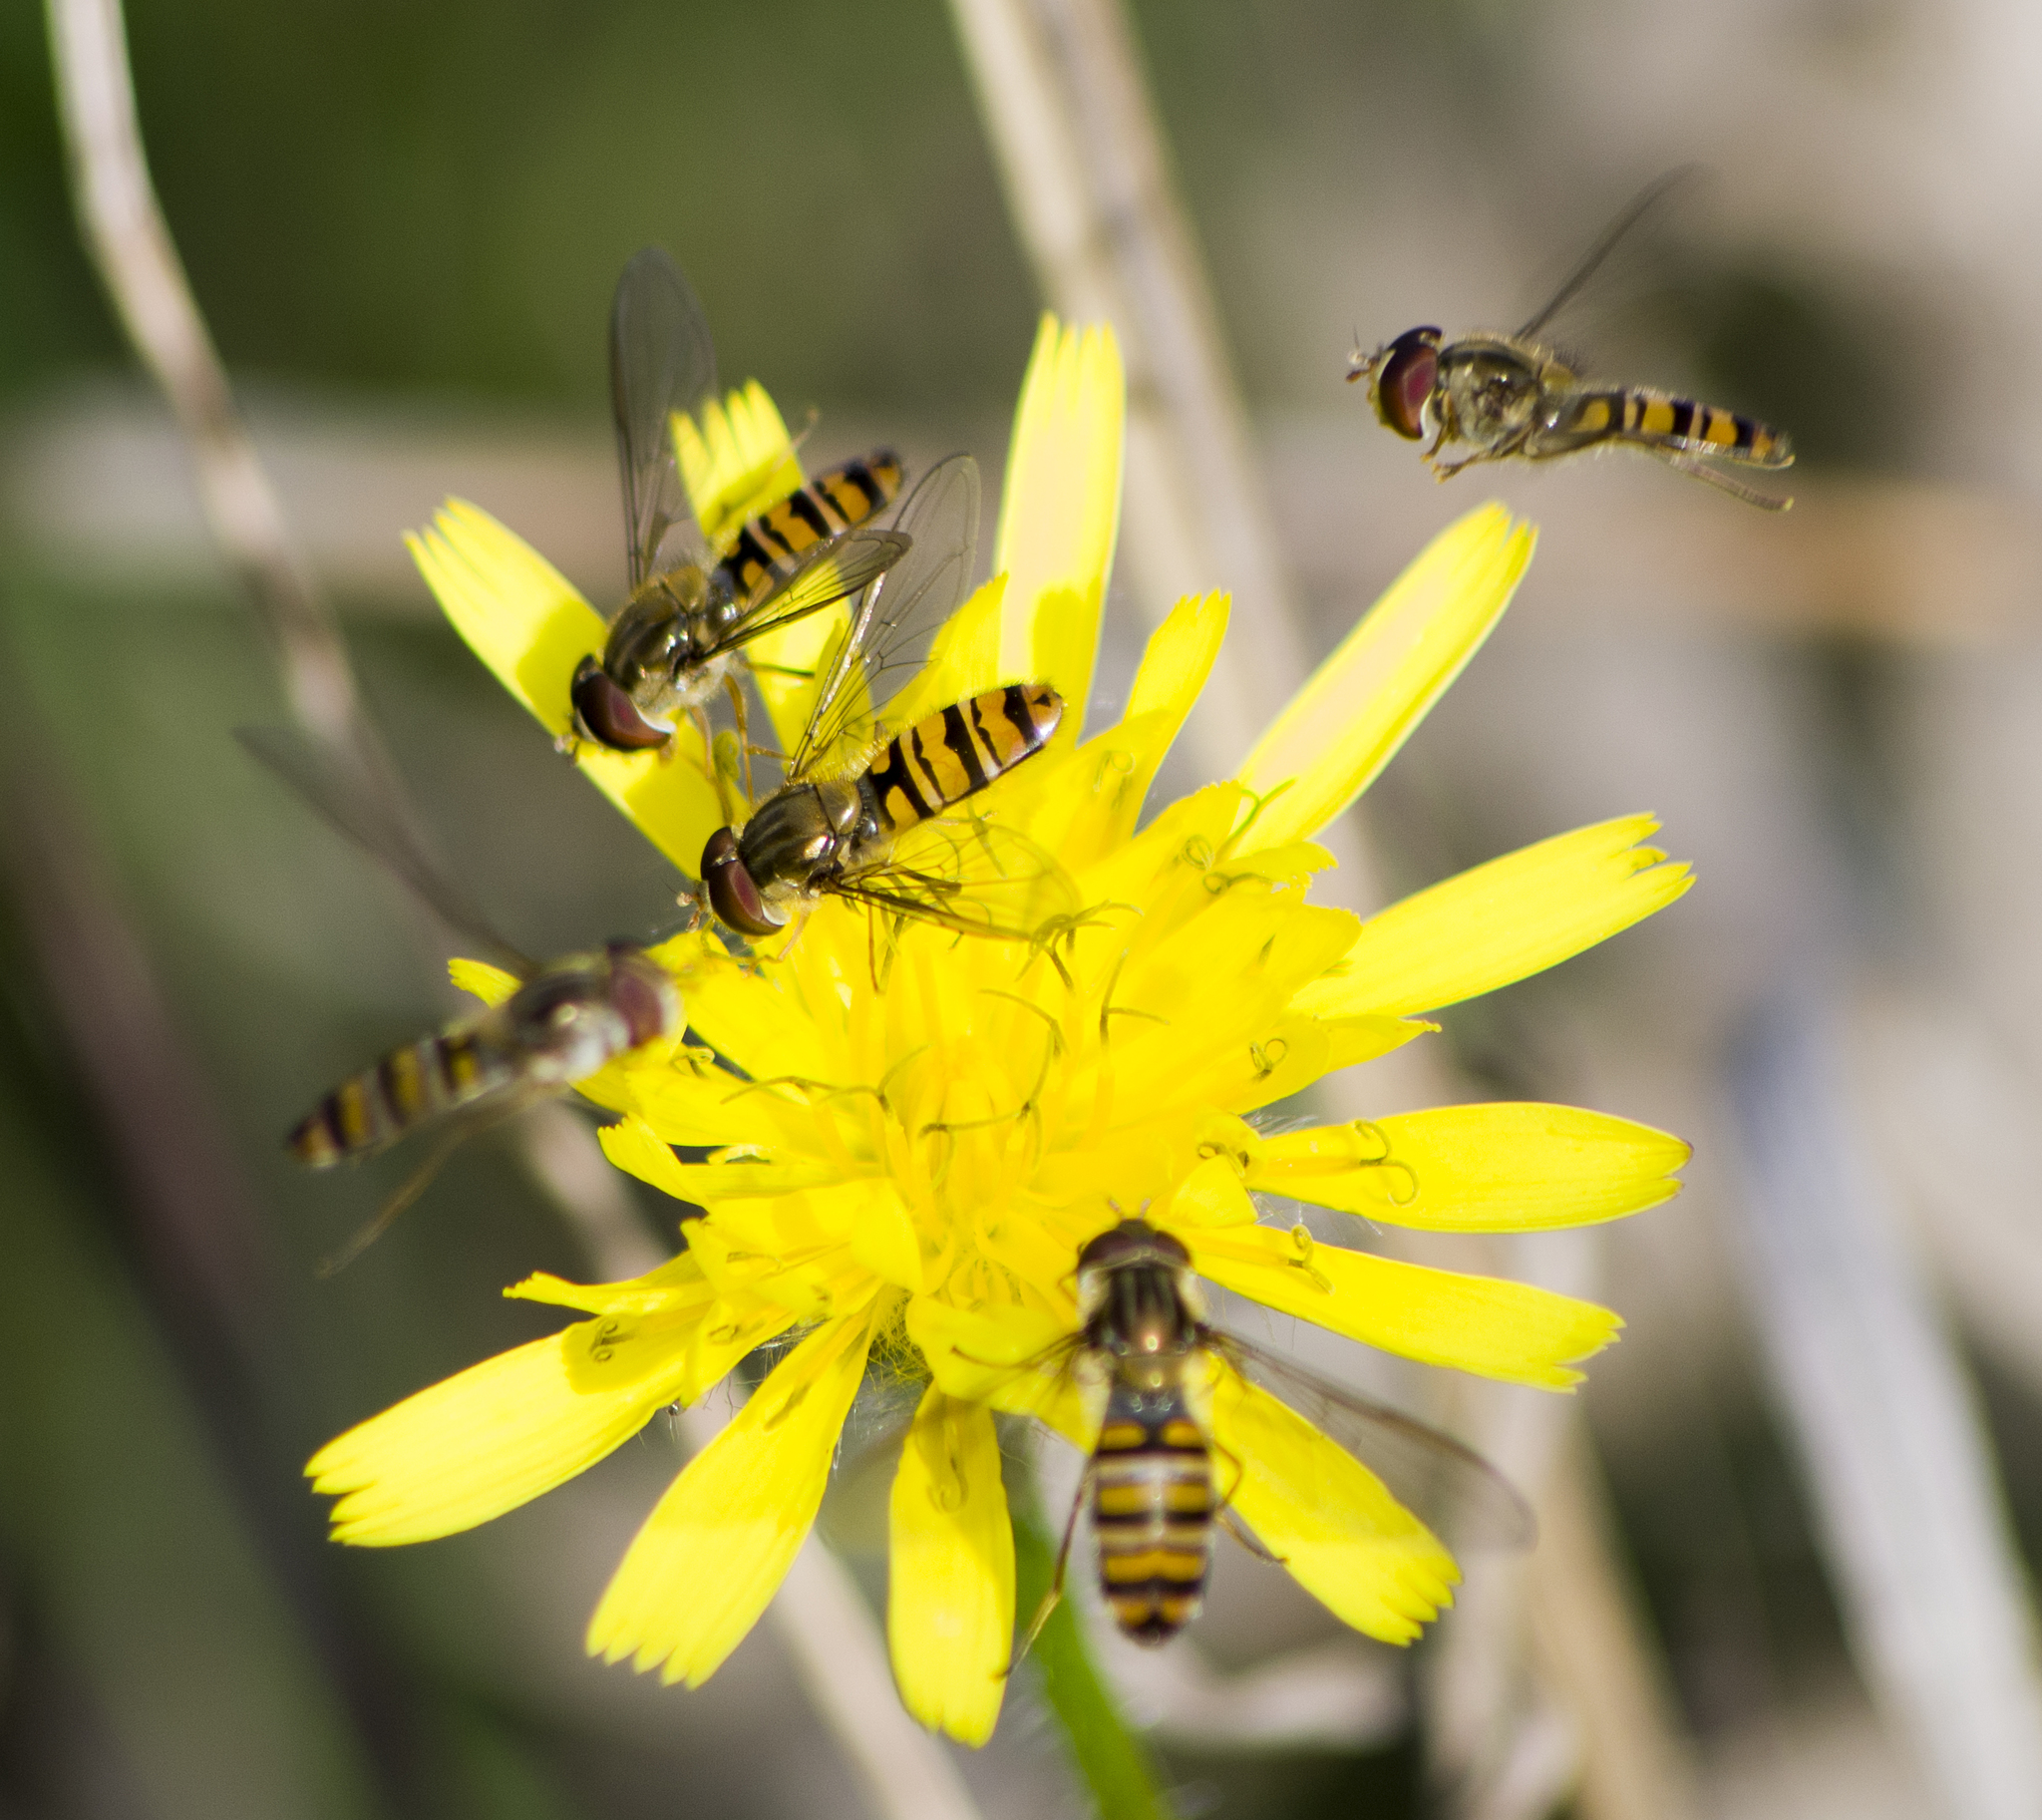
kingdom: Animalia
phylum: Arthropoda
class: Insecta
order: Diptera
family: Syrphidae
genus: Episyrphus
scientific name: Episyrphus balteatus
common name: Marmalade hoverfly
